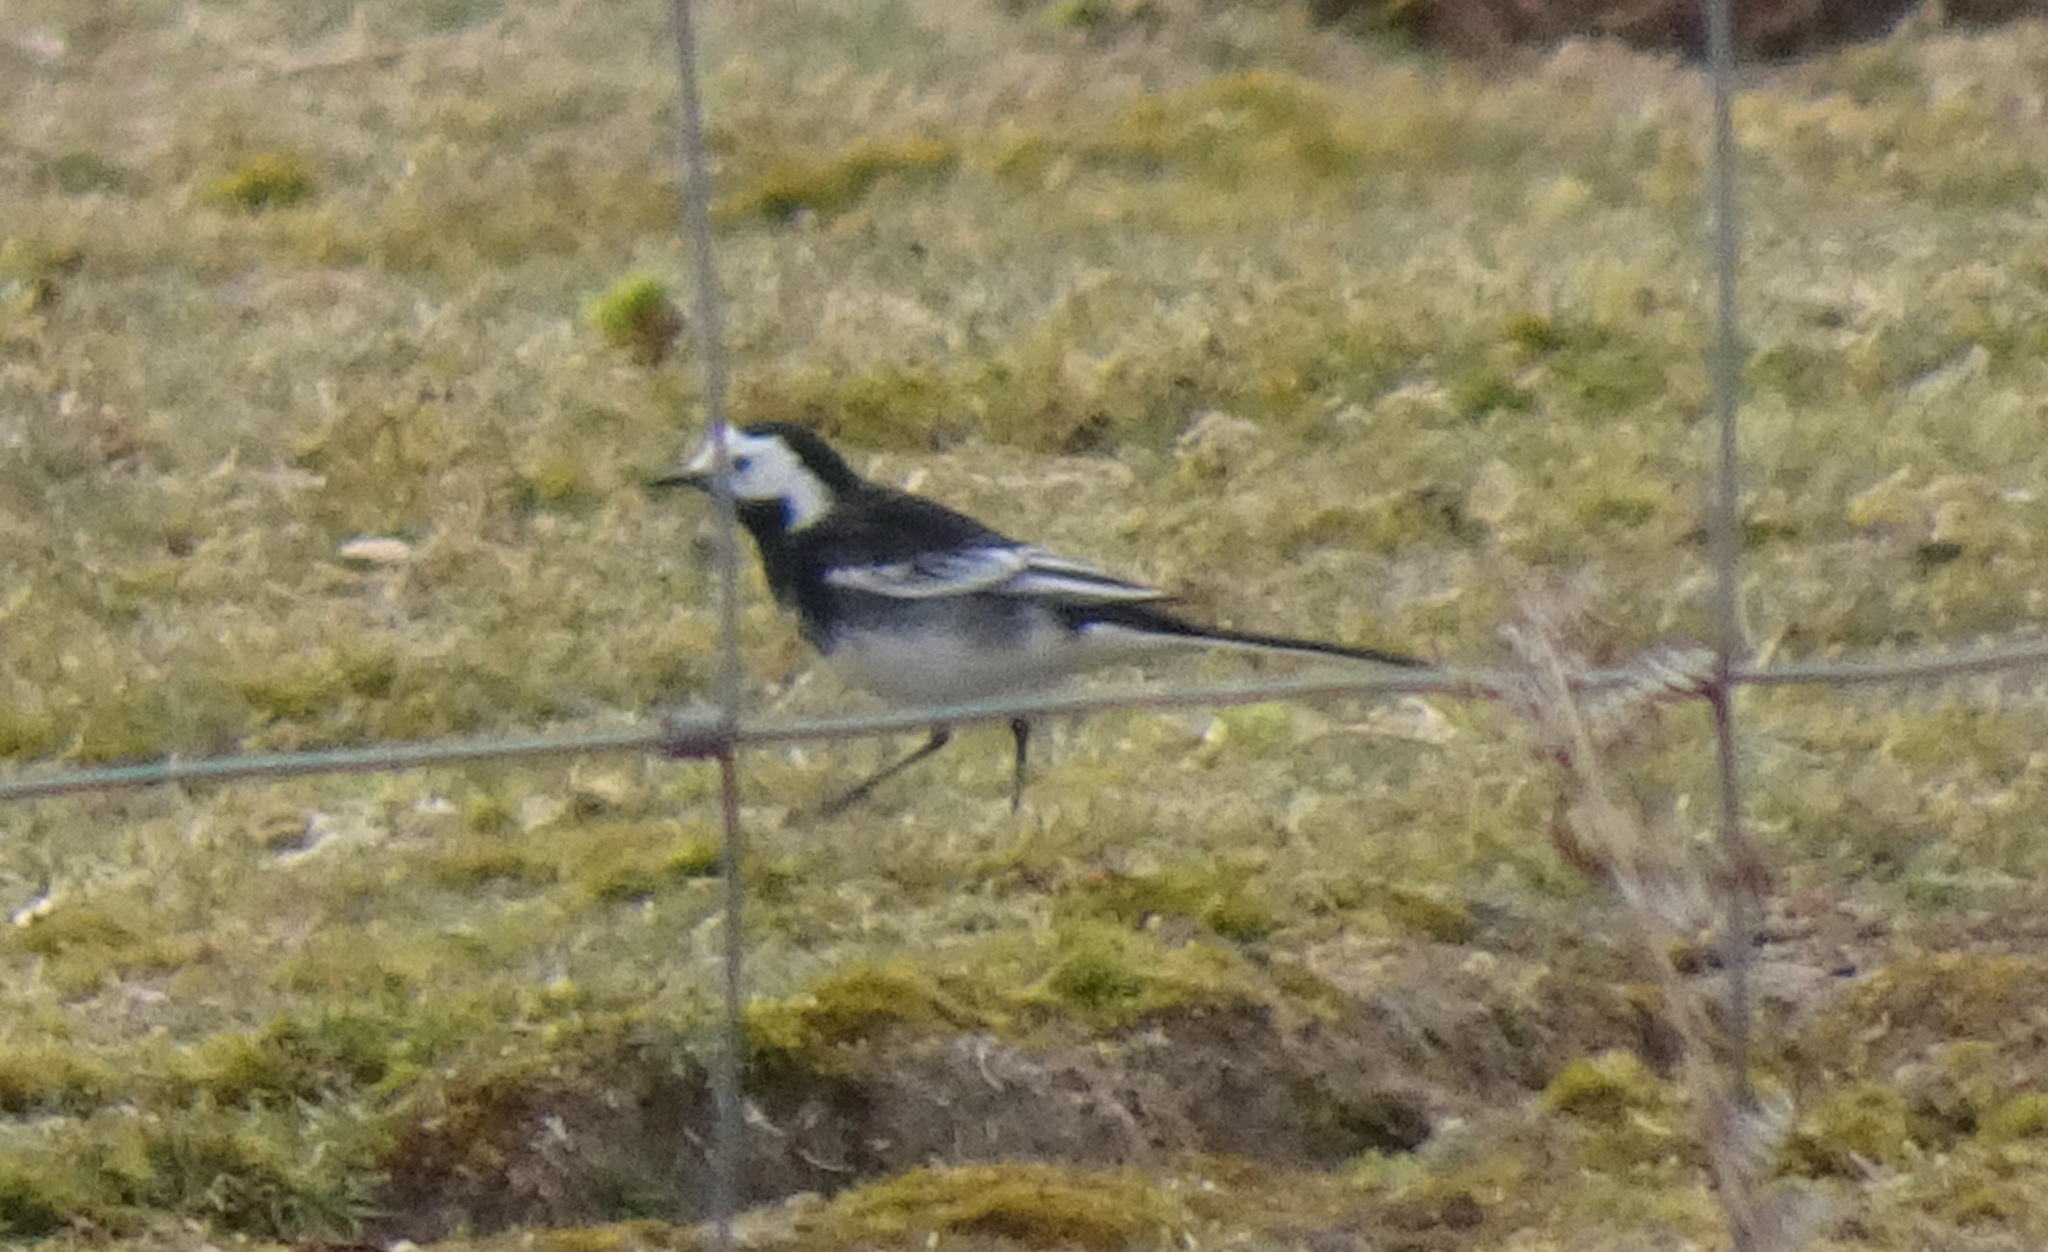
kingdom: Animalia
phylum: Chordata
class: Aves
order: Passeriformes
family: Motacillidae
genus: Motacilla
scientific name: Motacilla alba
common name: White wagtail
